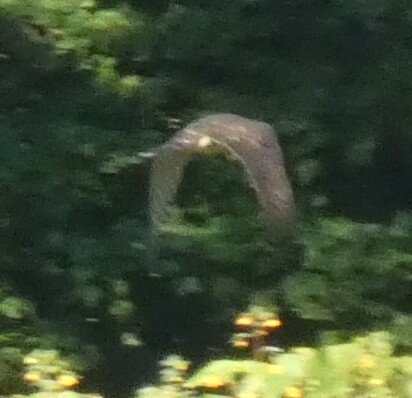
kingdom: Animalia
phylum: Chordata
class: Aves
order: Accipitriformes
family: Accipitridae
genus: Accipiter
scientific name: Accipiter cooperii
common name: Cooper's hawk
